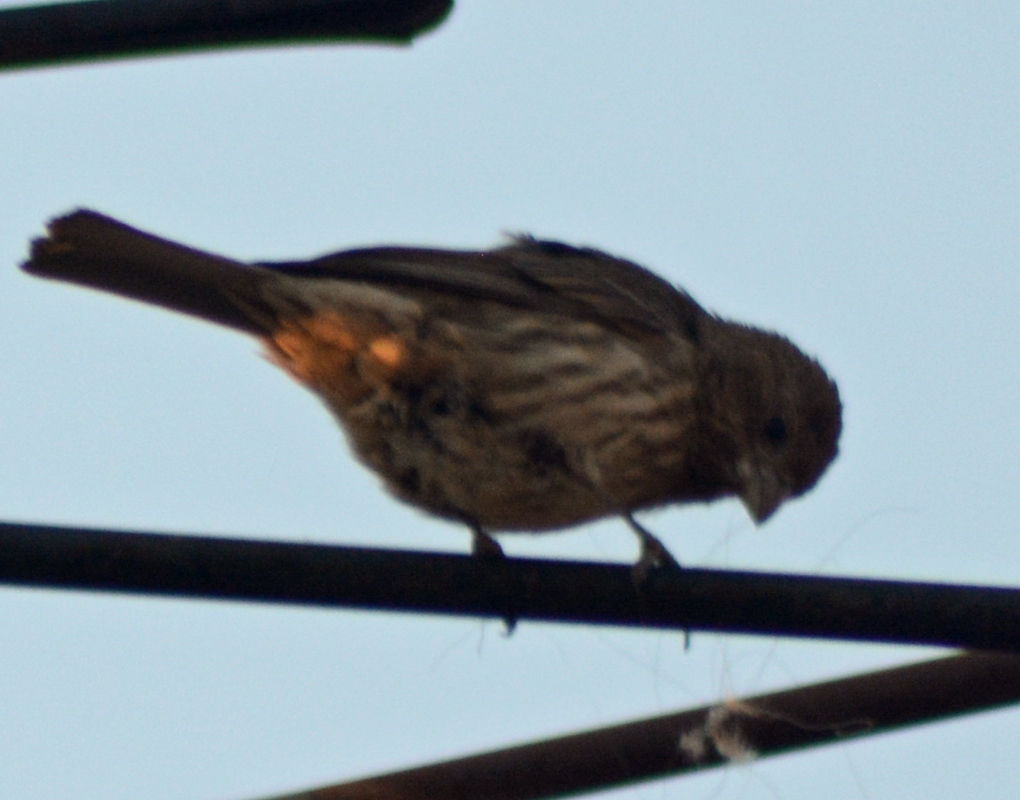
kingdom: Animalia
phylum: Chordata
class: Aves
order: Passeriformes
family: Fringillidae
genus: Haemorhous
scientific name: Haemorhous mexicanus
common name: House finch
